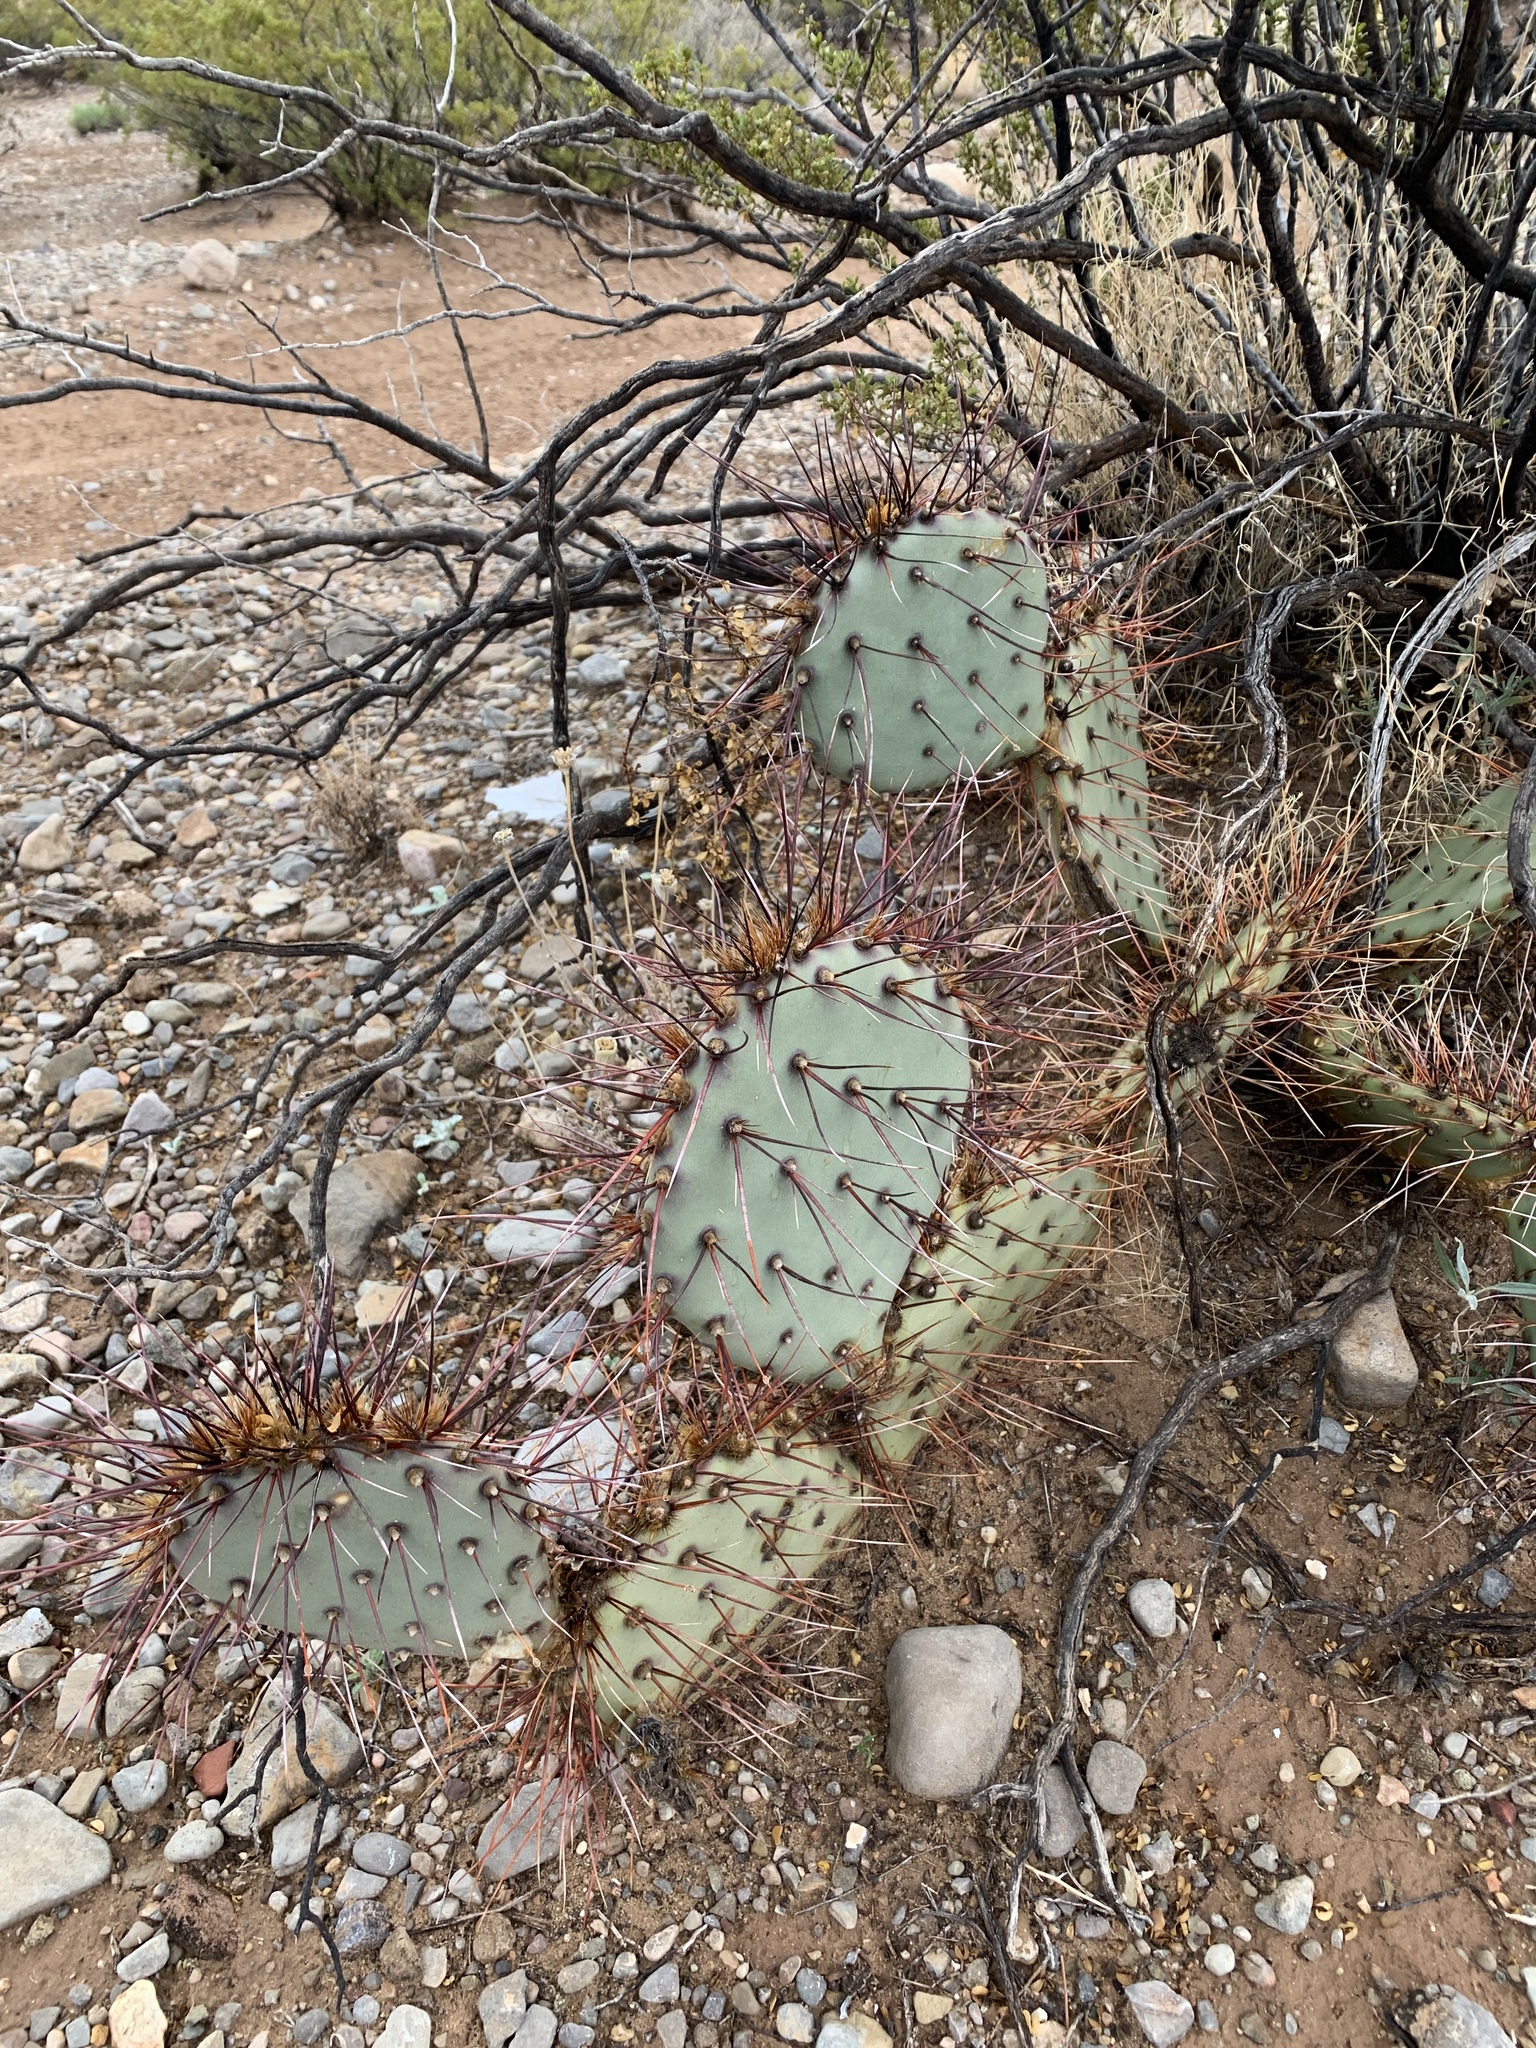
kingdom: Plantae
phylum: Tracheophyta
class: Magnoliopsida
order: Caryophyllales
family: Cactaceae
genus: Opuntia
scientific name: Opuntia macrocentra
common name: Purple prickly-pear
